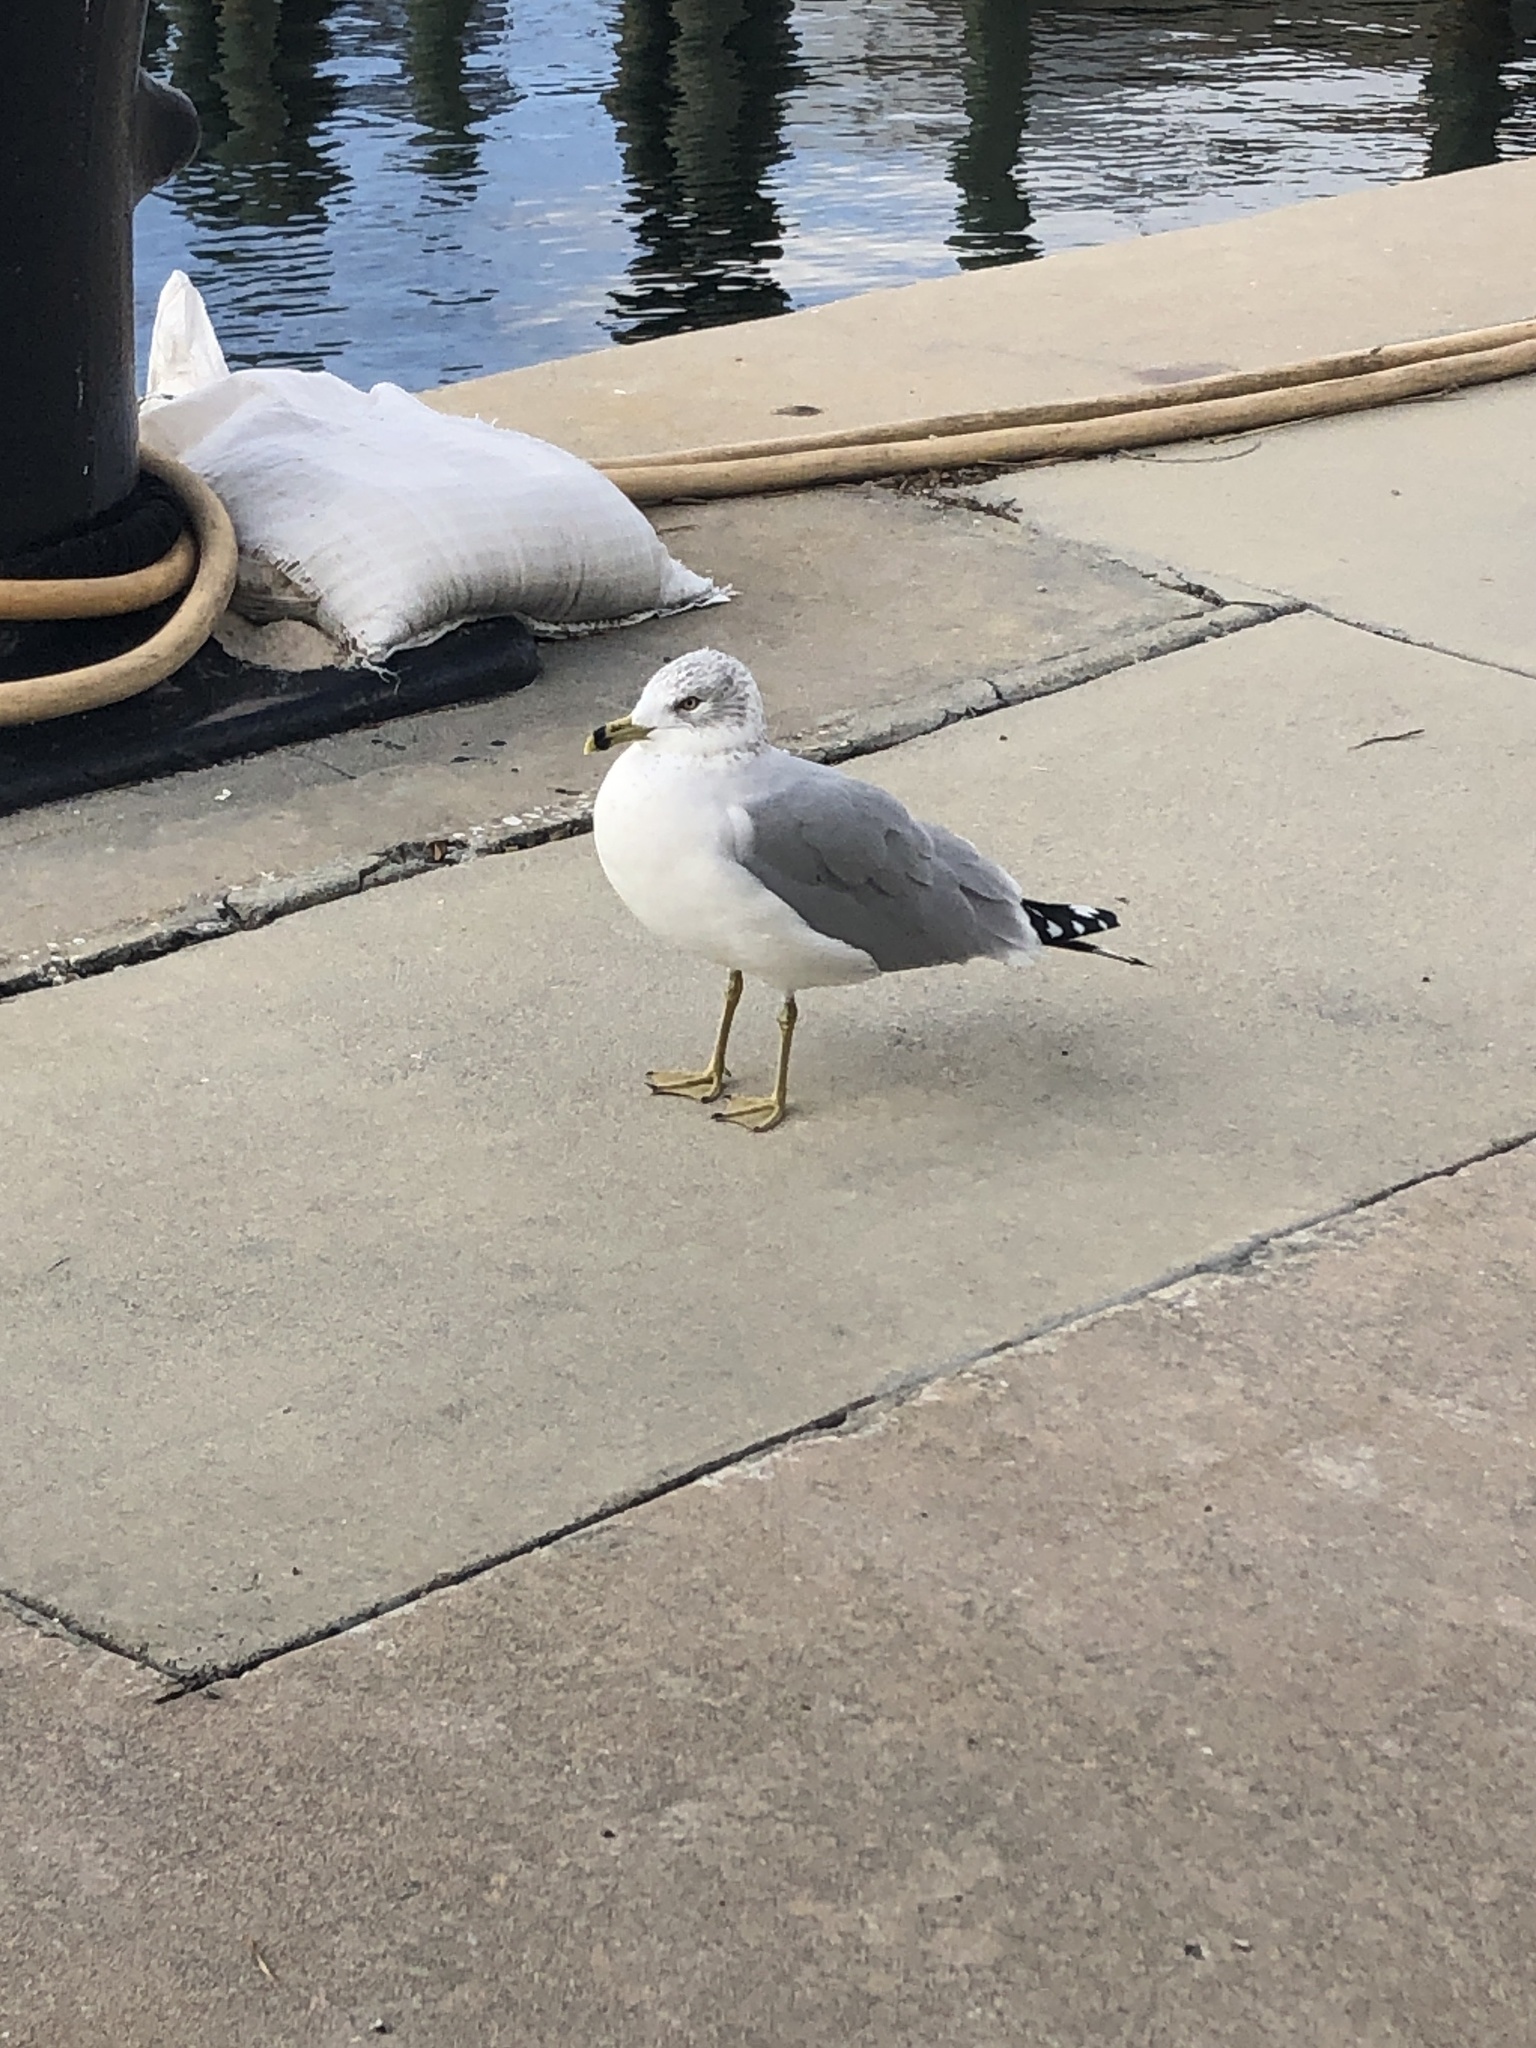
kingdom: Animalia
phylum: Chordata
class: Aves
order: Charadriiformes
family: Laridae
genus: Larus
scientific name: Larus delawarensis
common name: Ring-billed gull
